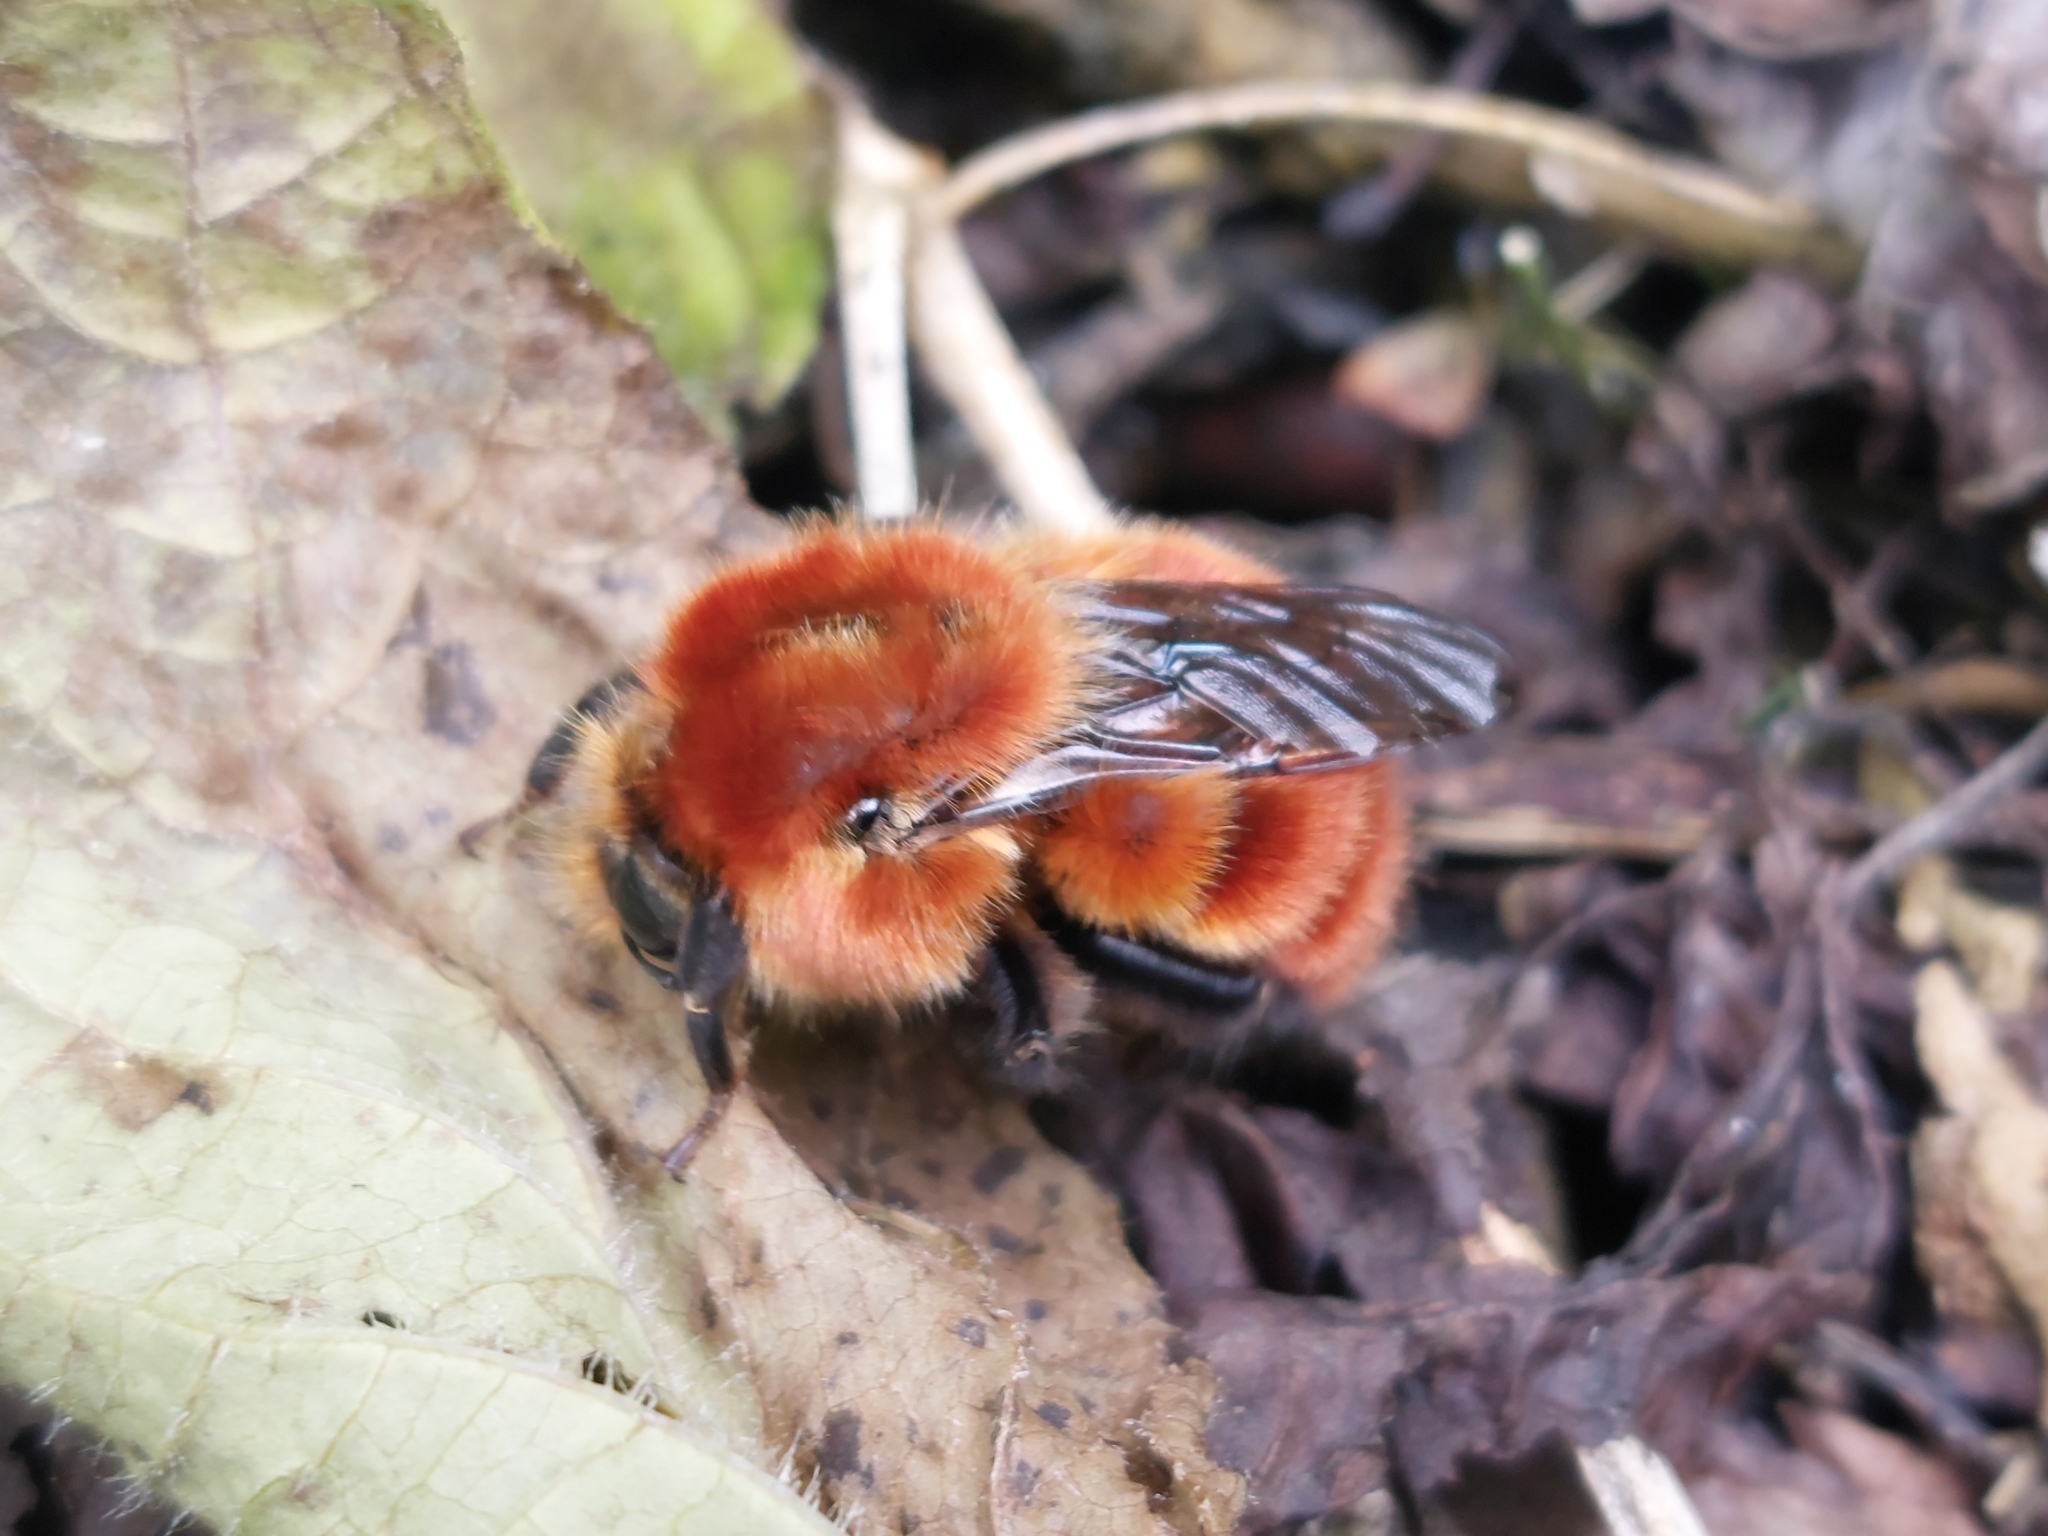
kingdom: Animalia
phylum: Arthropoda
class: Insecta
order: Hymenoptera
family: Apidae
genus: Bombus
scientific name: Bombus rubicundus
